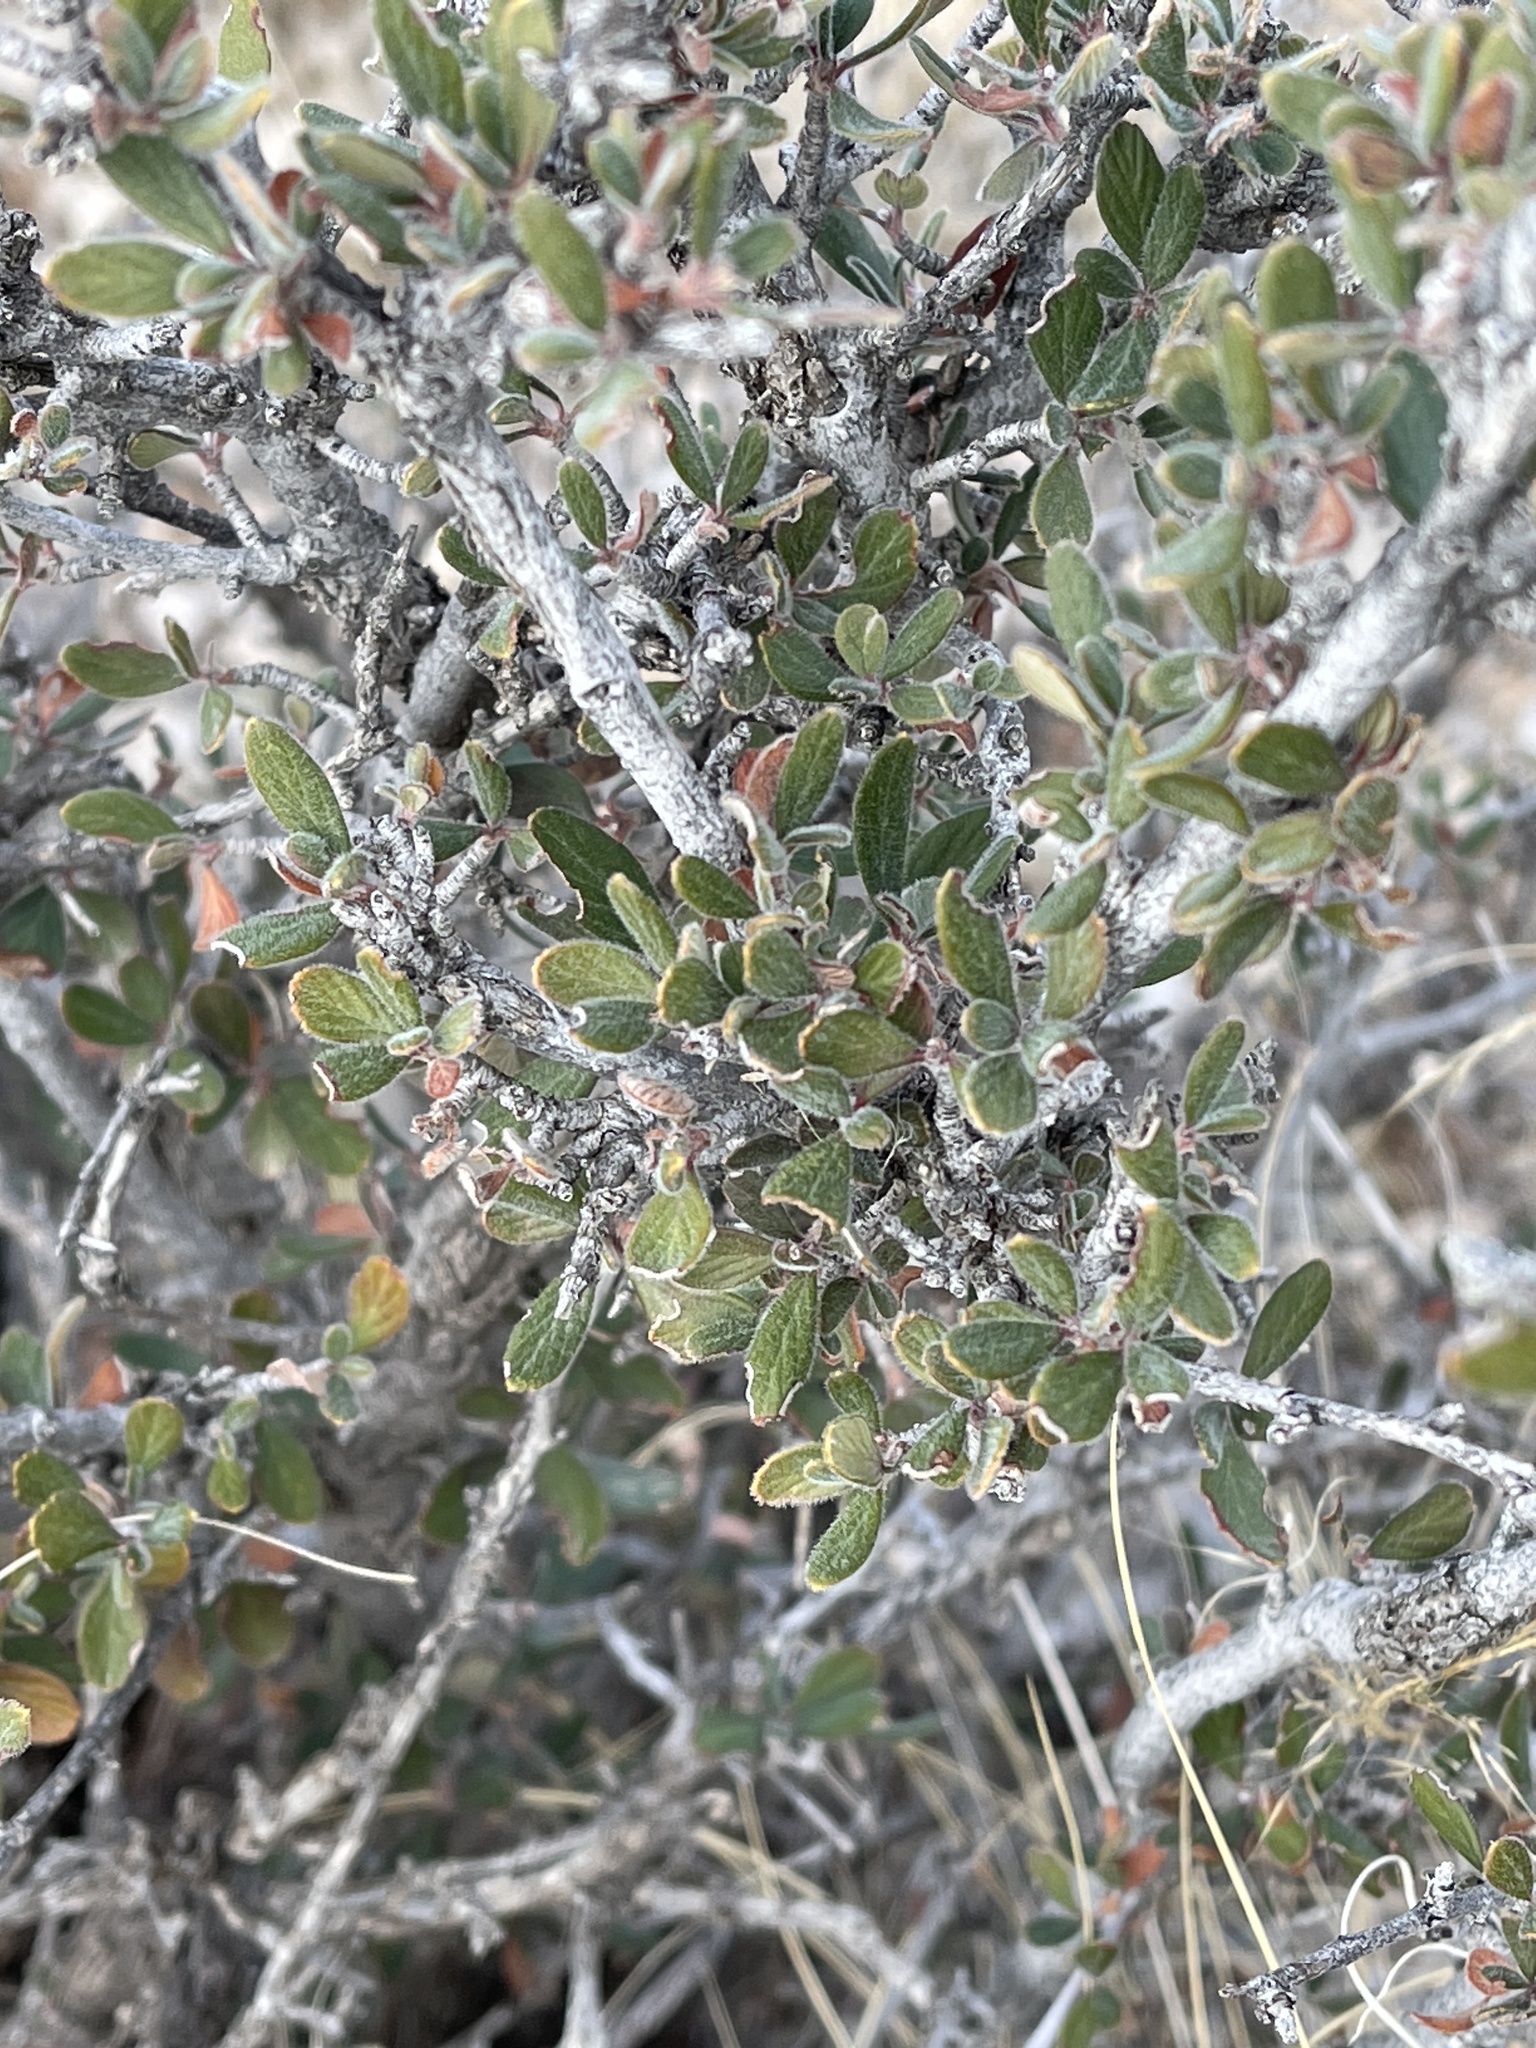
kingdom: Plantae
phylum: Tracheophyta
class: Magnoliopsida
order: Rosales
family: Rosaceae
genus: Cercocarpus
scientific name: Cercocarpus breviflorus
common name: Wright's mountain-mahogany
